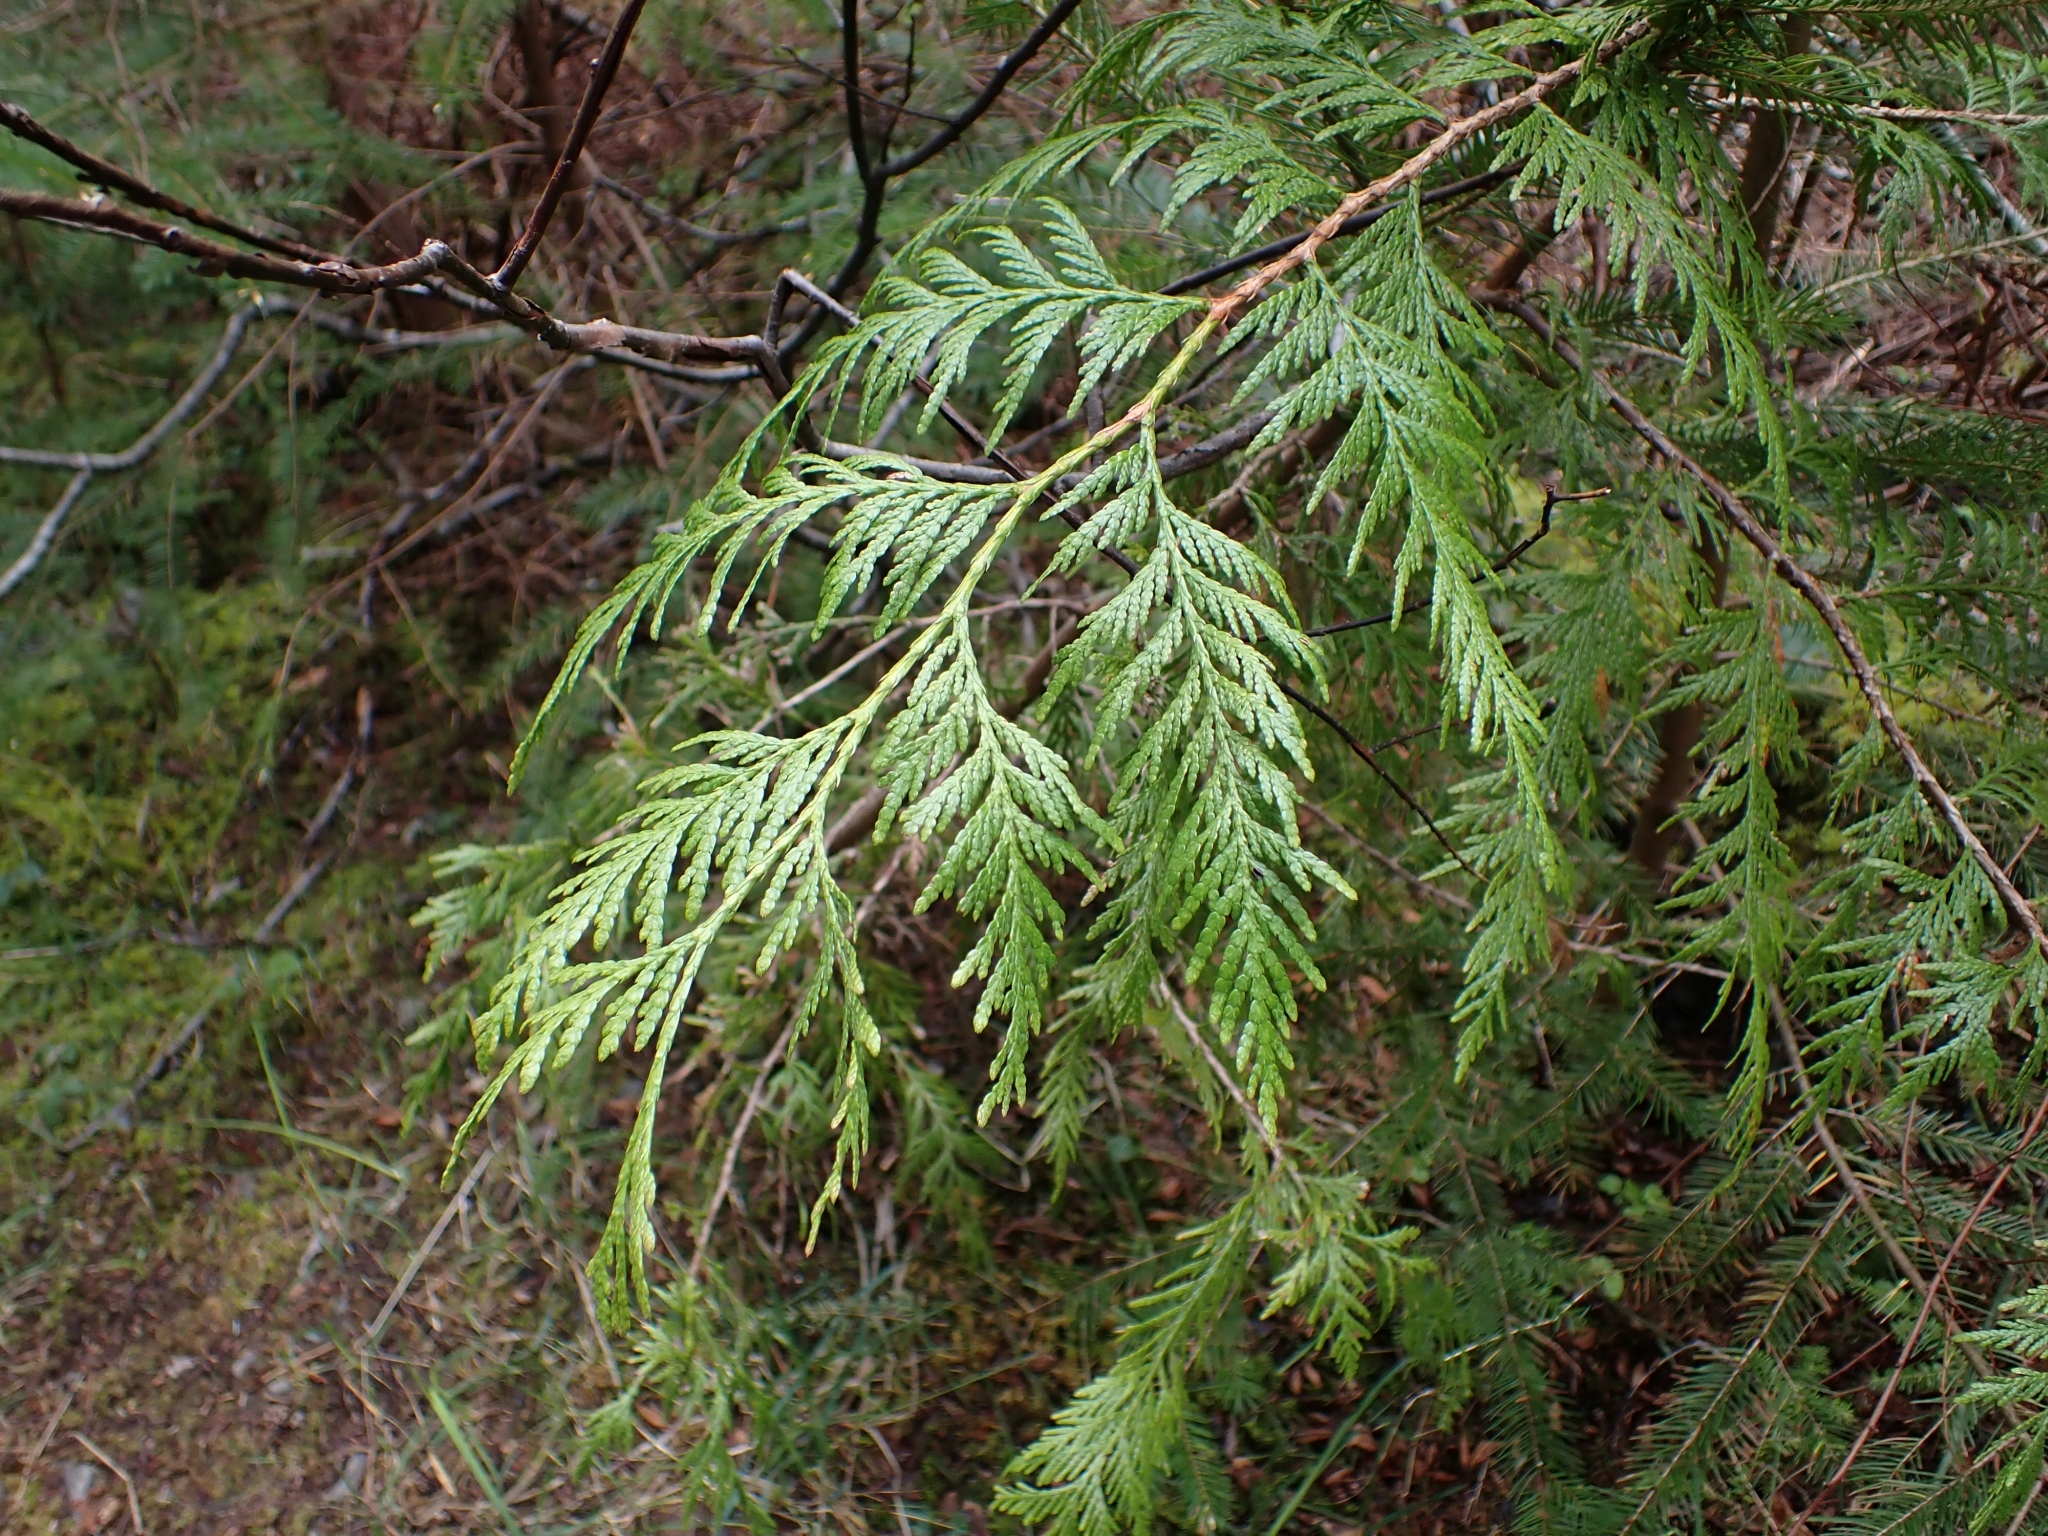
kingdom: Plantae
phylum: Tracheophyta
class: Pinopsida
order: Pinales
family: Cupressaceae
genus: Thuja
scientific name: Thuja plicata
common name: Western red-cedar
